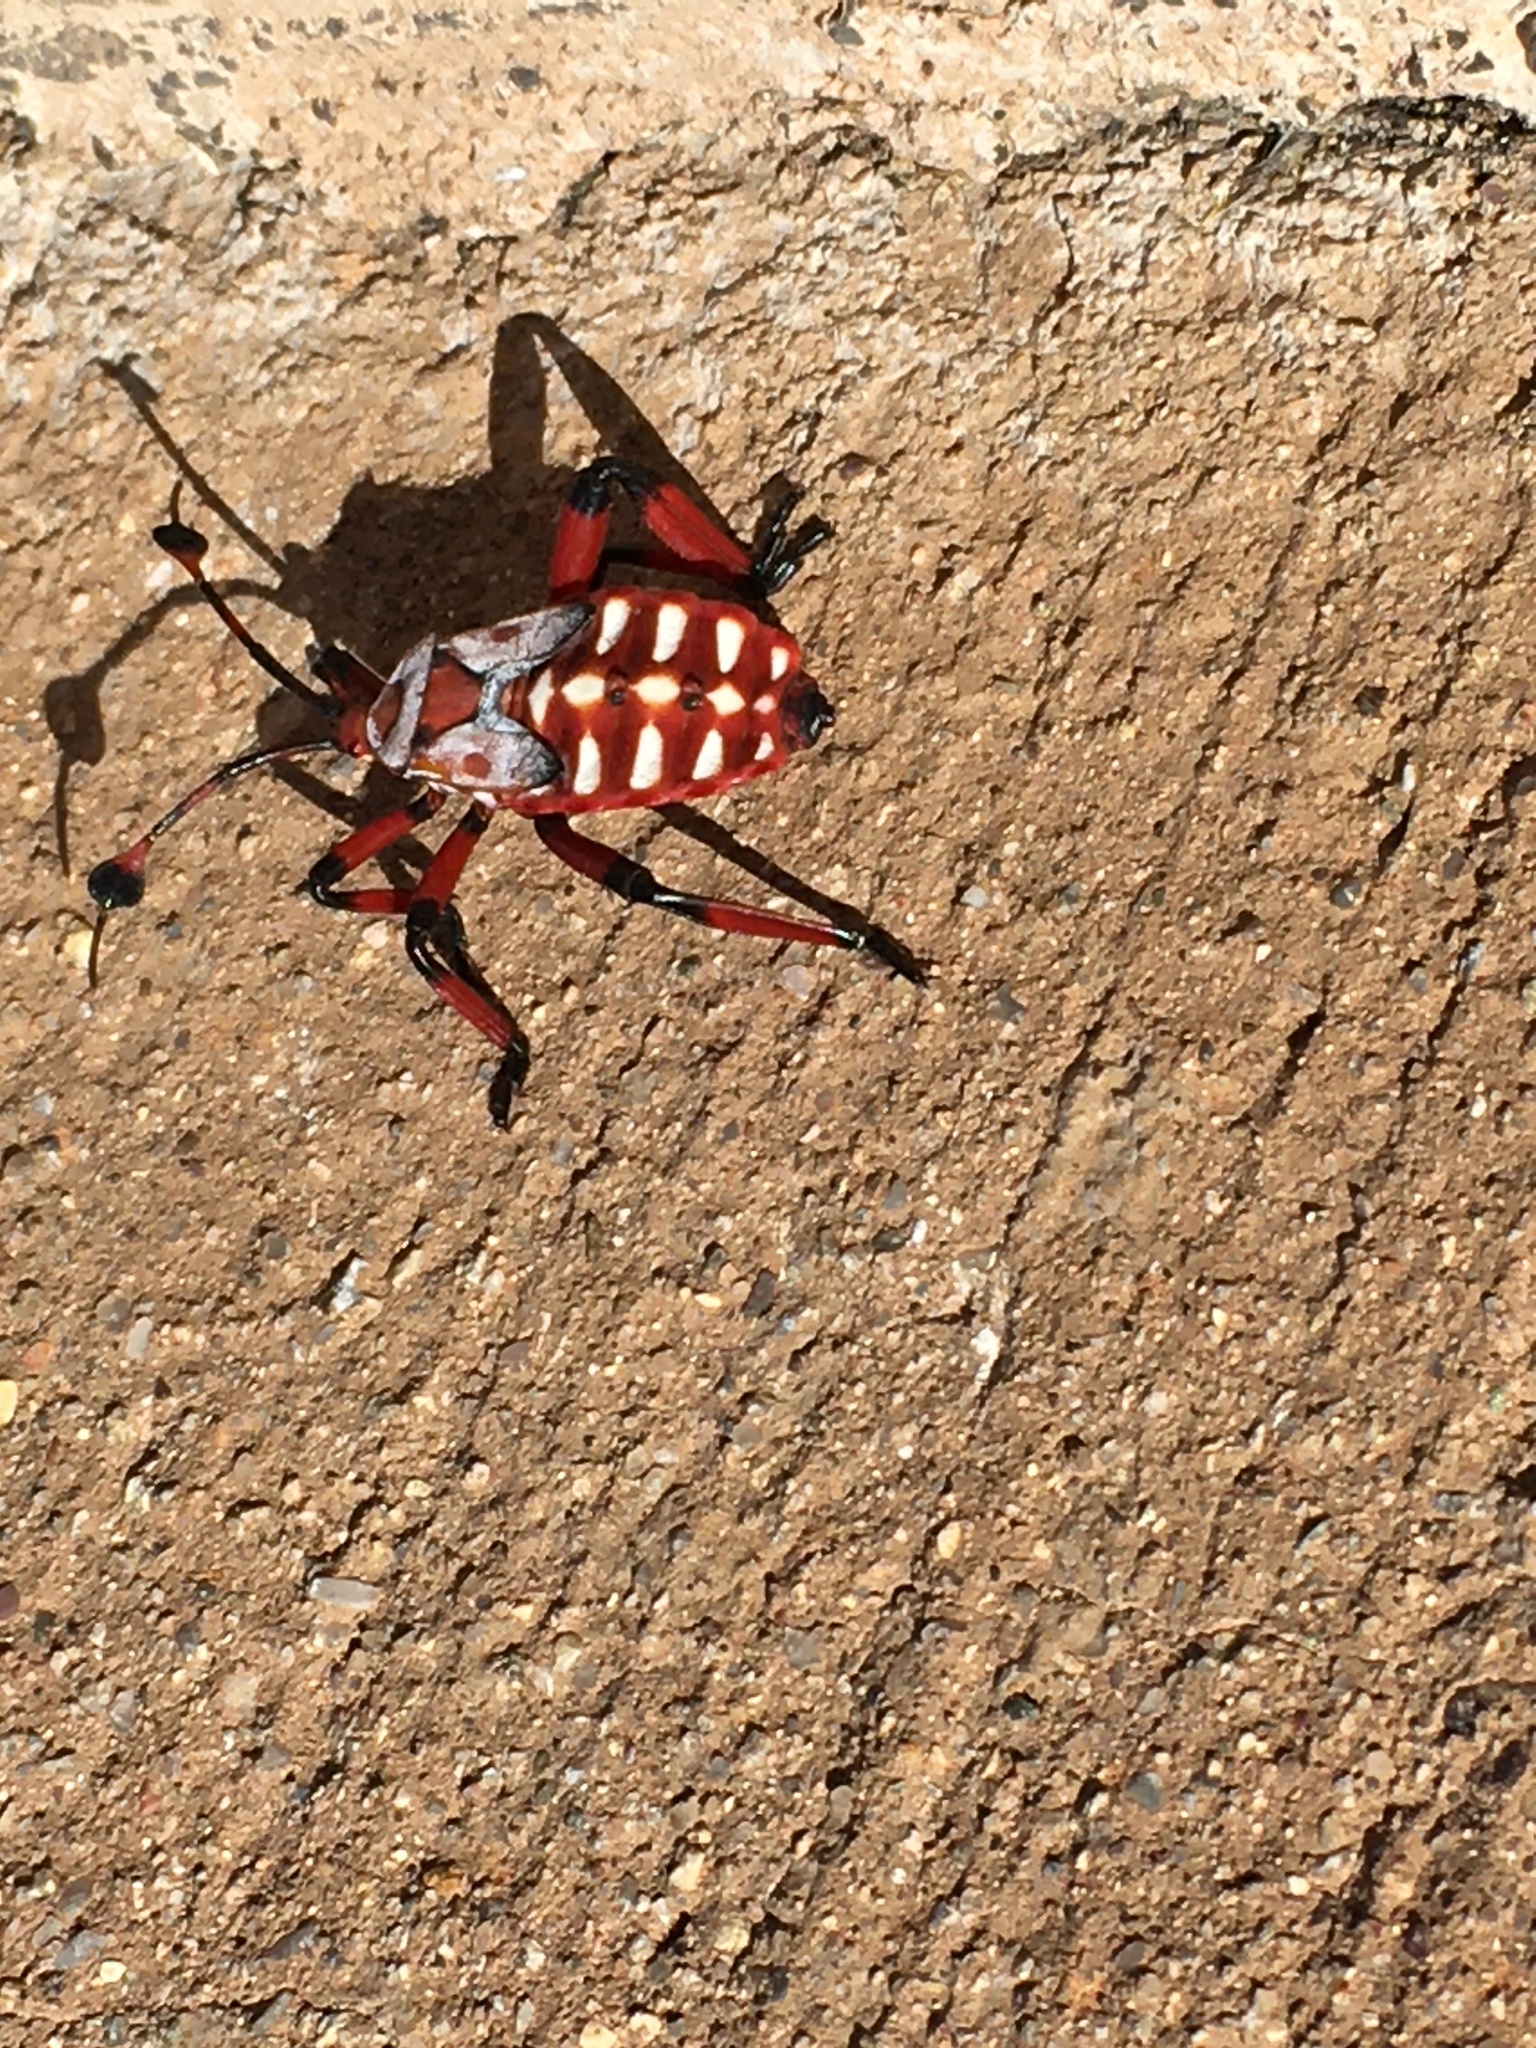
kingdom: Animalia
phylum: Arthropoda
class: Insecta
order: Hemiptera
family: Coreidae
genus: Thasus
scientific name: Thasus neocalifornicus
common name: Giant mesquite bug
